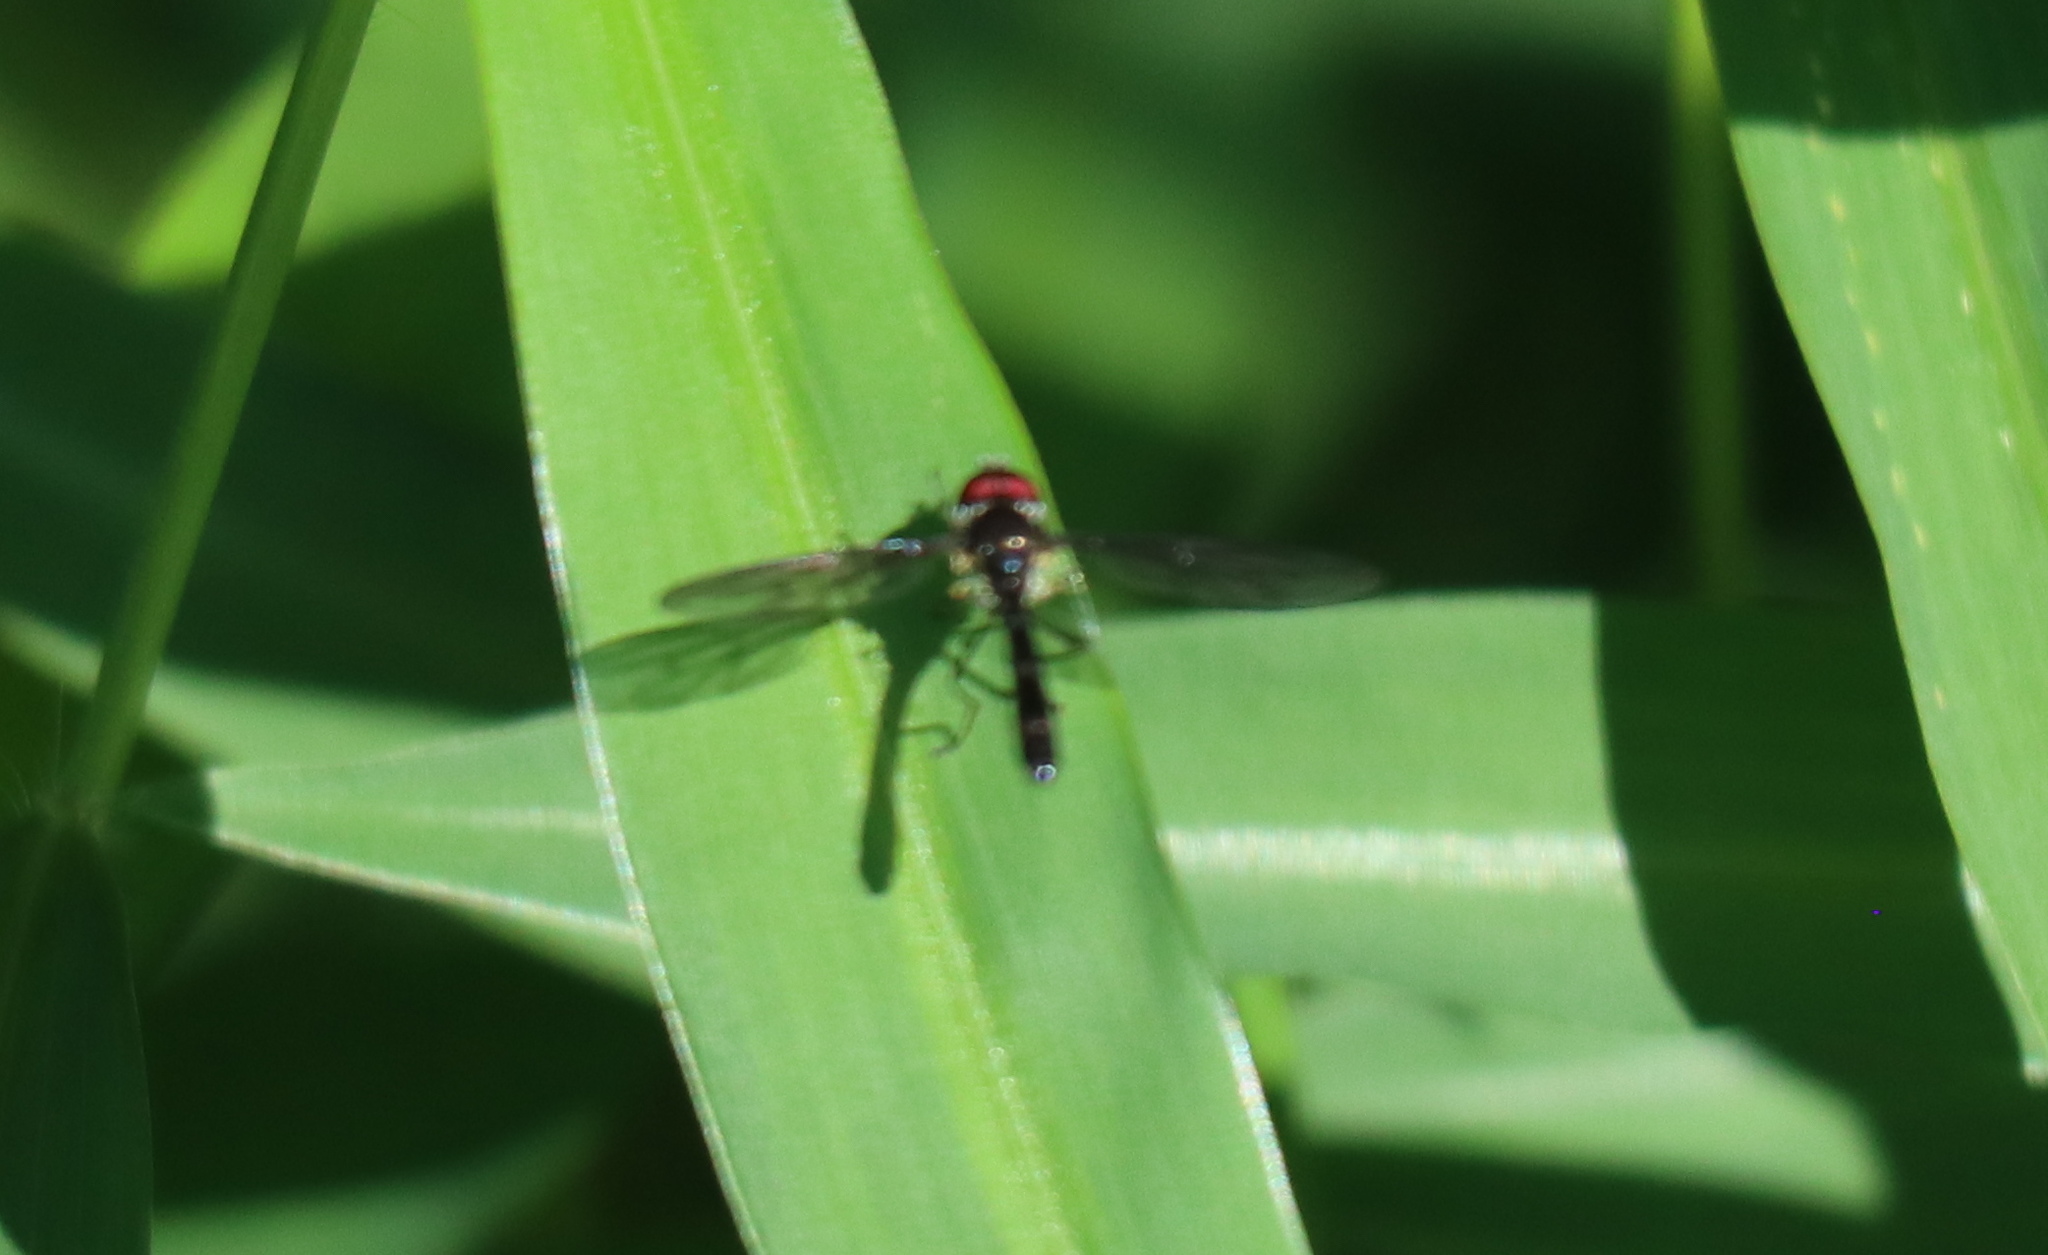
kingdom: Animalia
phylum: Arthropoda
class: Insecta
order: Diptera
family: Syrphidae
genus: Ocyptamus
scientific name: Ocyptamus fuscipennis
